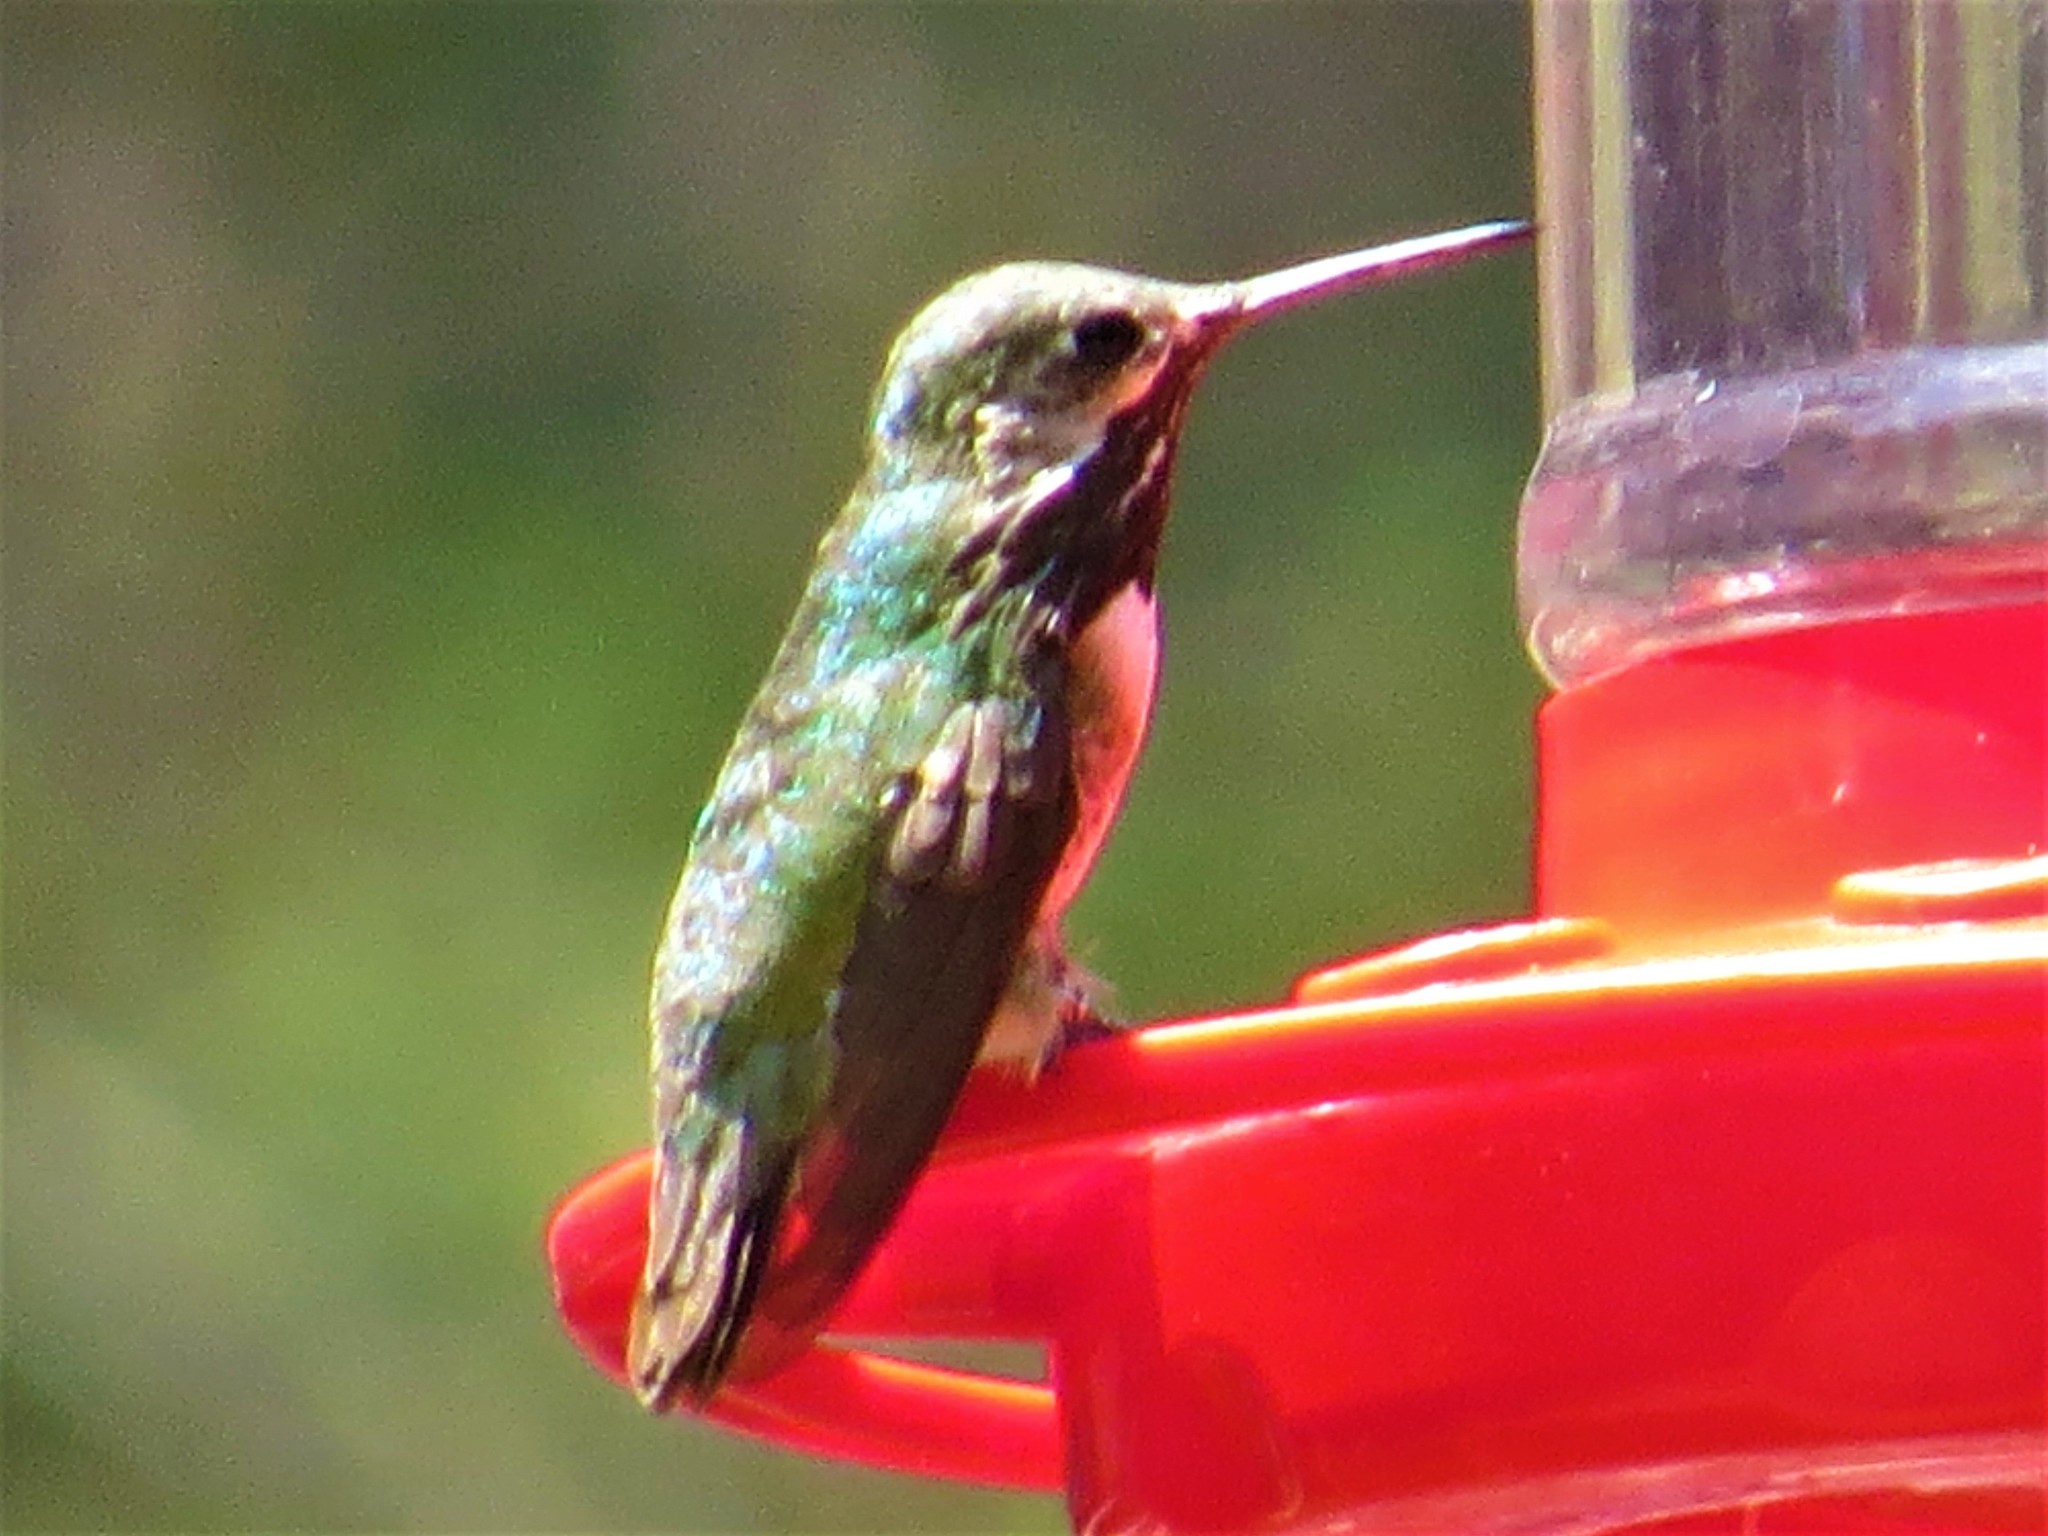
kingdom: Animalia
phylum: Chordata
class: Aves
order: Apodiformes
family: Trochilidae
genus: Selasphorus
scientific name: Selasphorus calliope
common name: Calliope hummingbird
